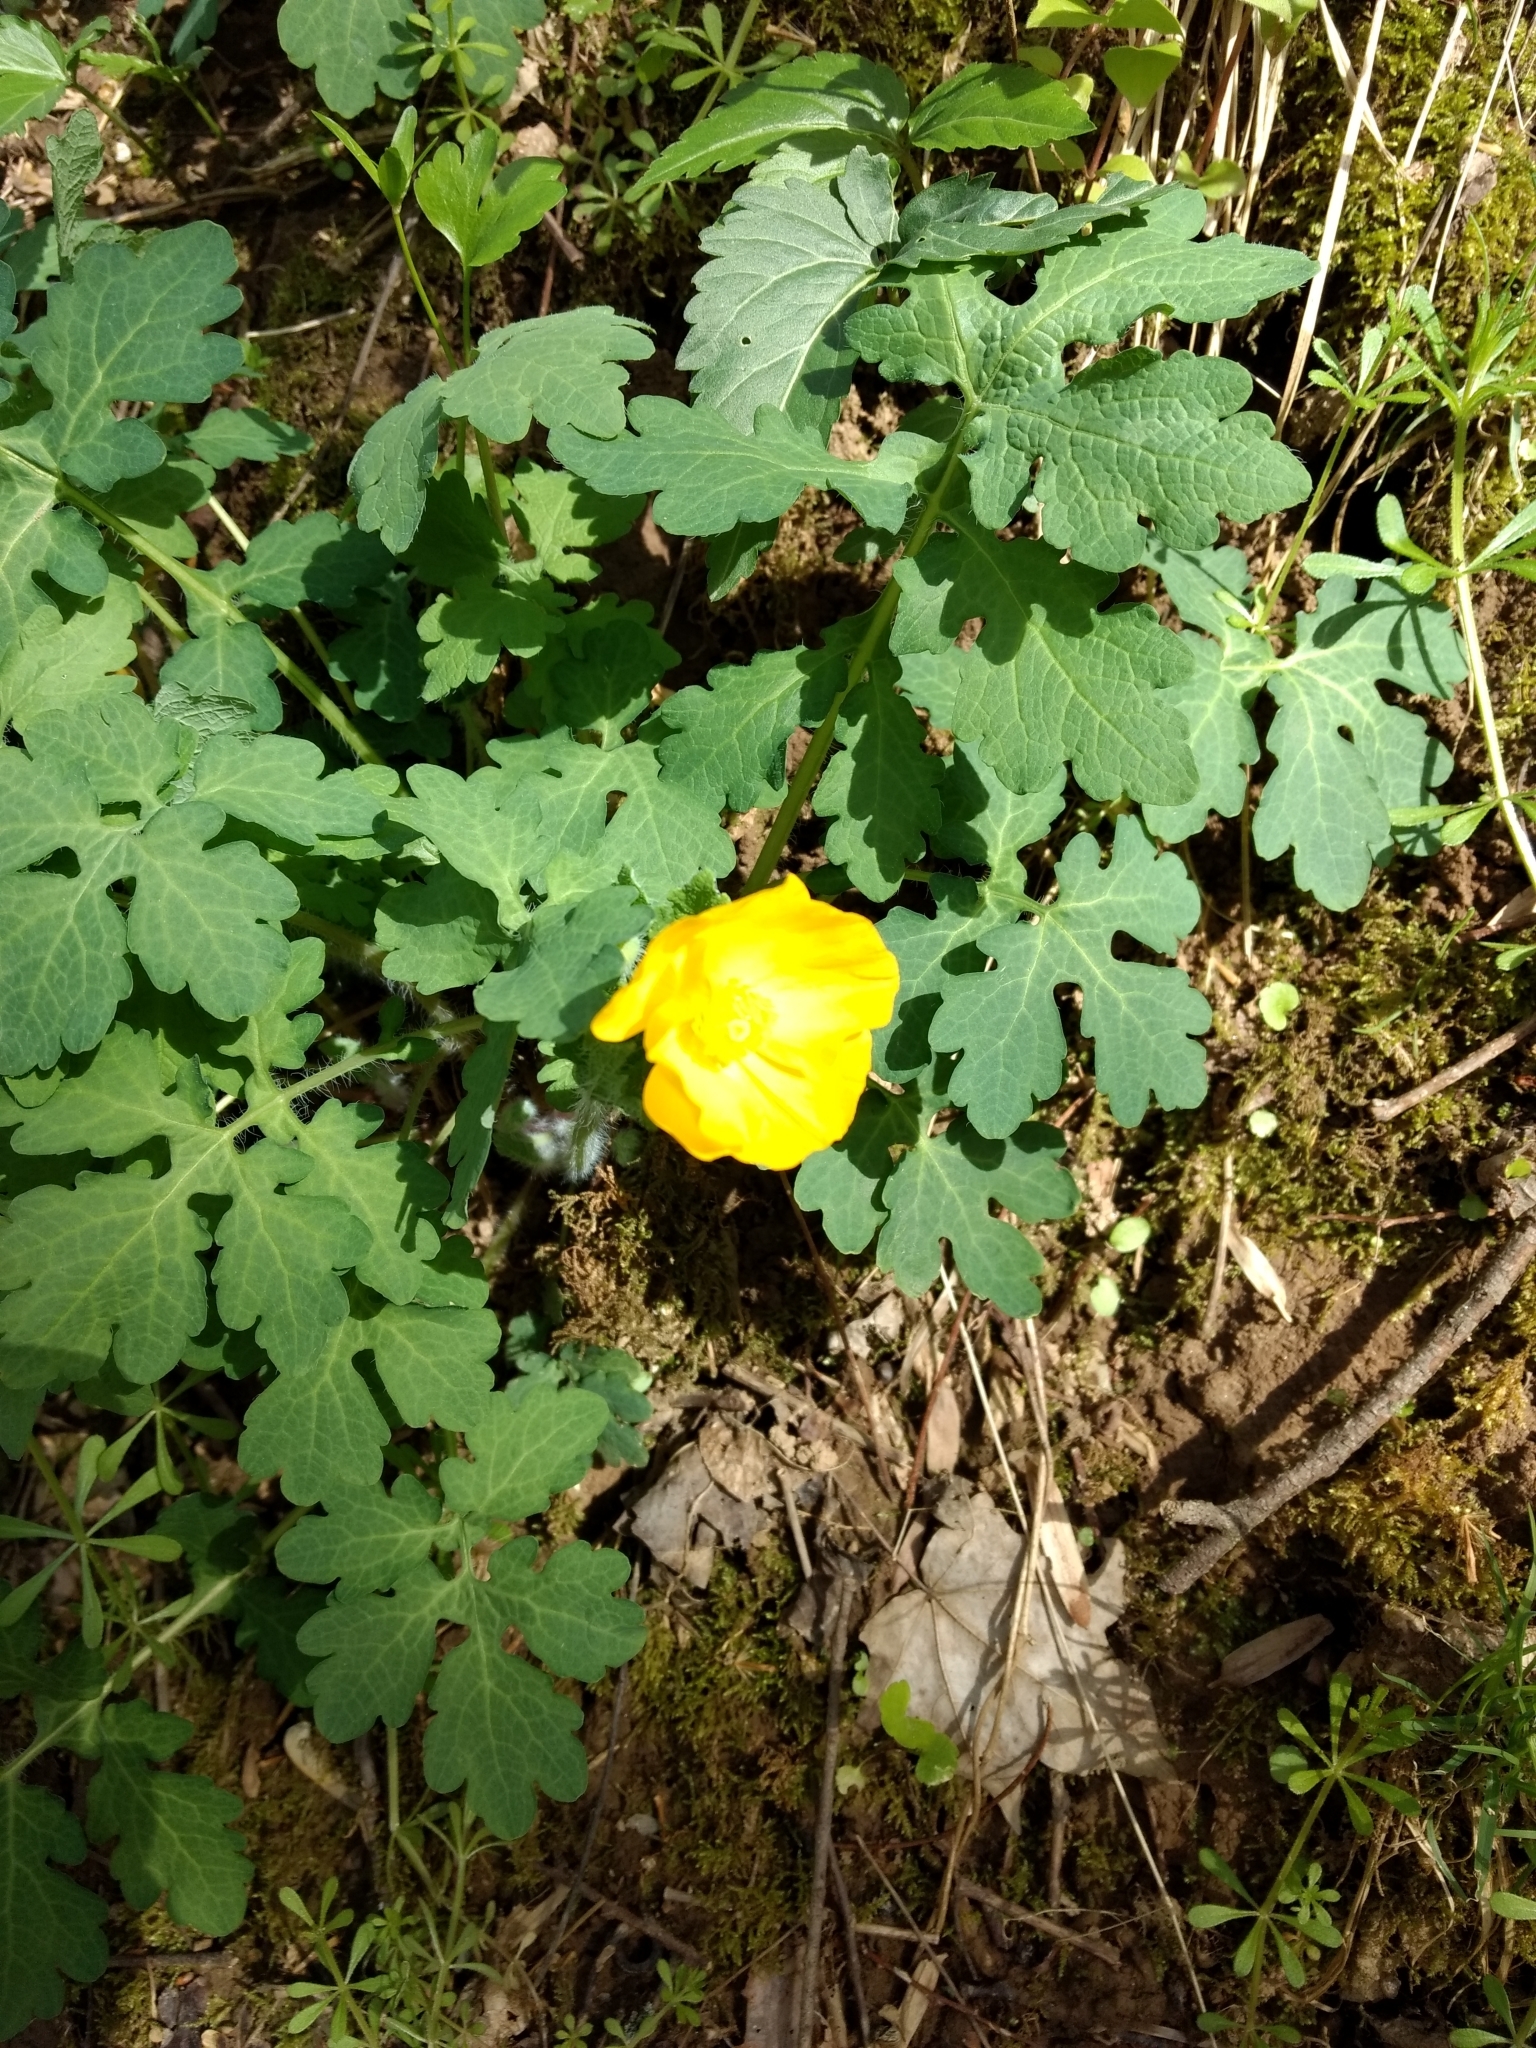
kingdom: Plantae
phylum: Tracheophyta
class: Magnoliopsida
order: Ranunculales
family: Papaveraceae
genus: Stylophorum
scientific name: Stylophorum diphyllum
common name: Celandine poppy
